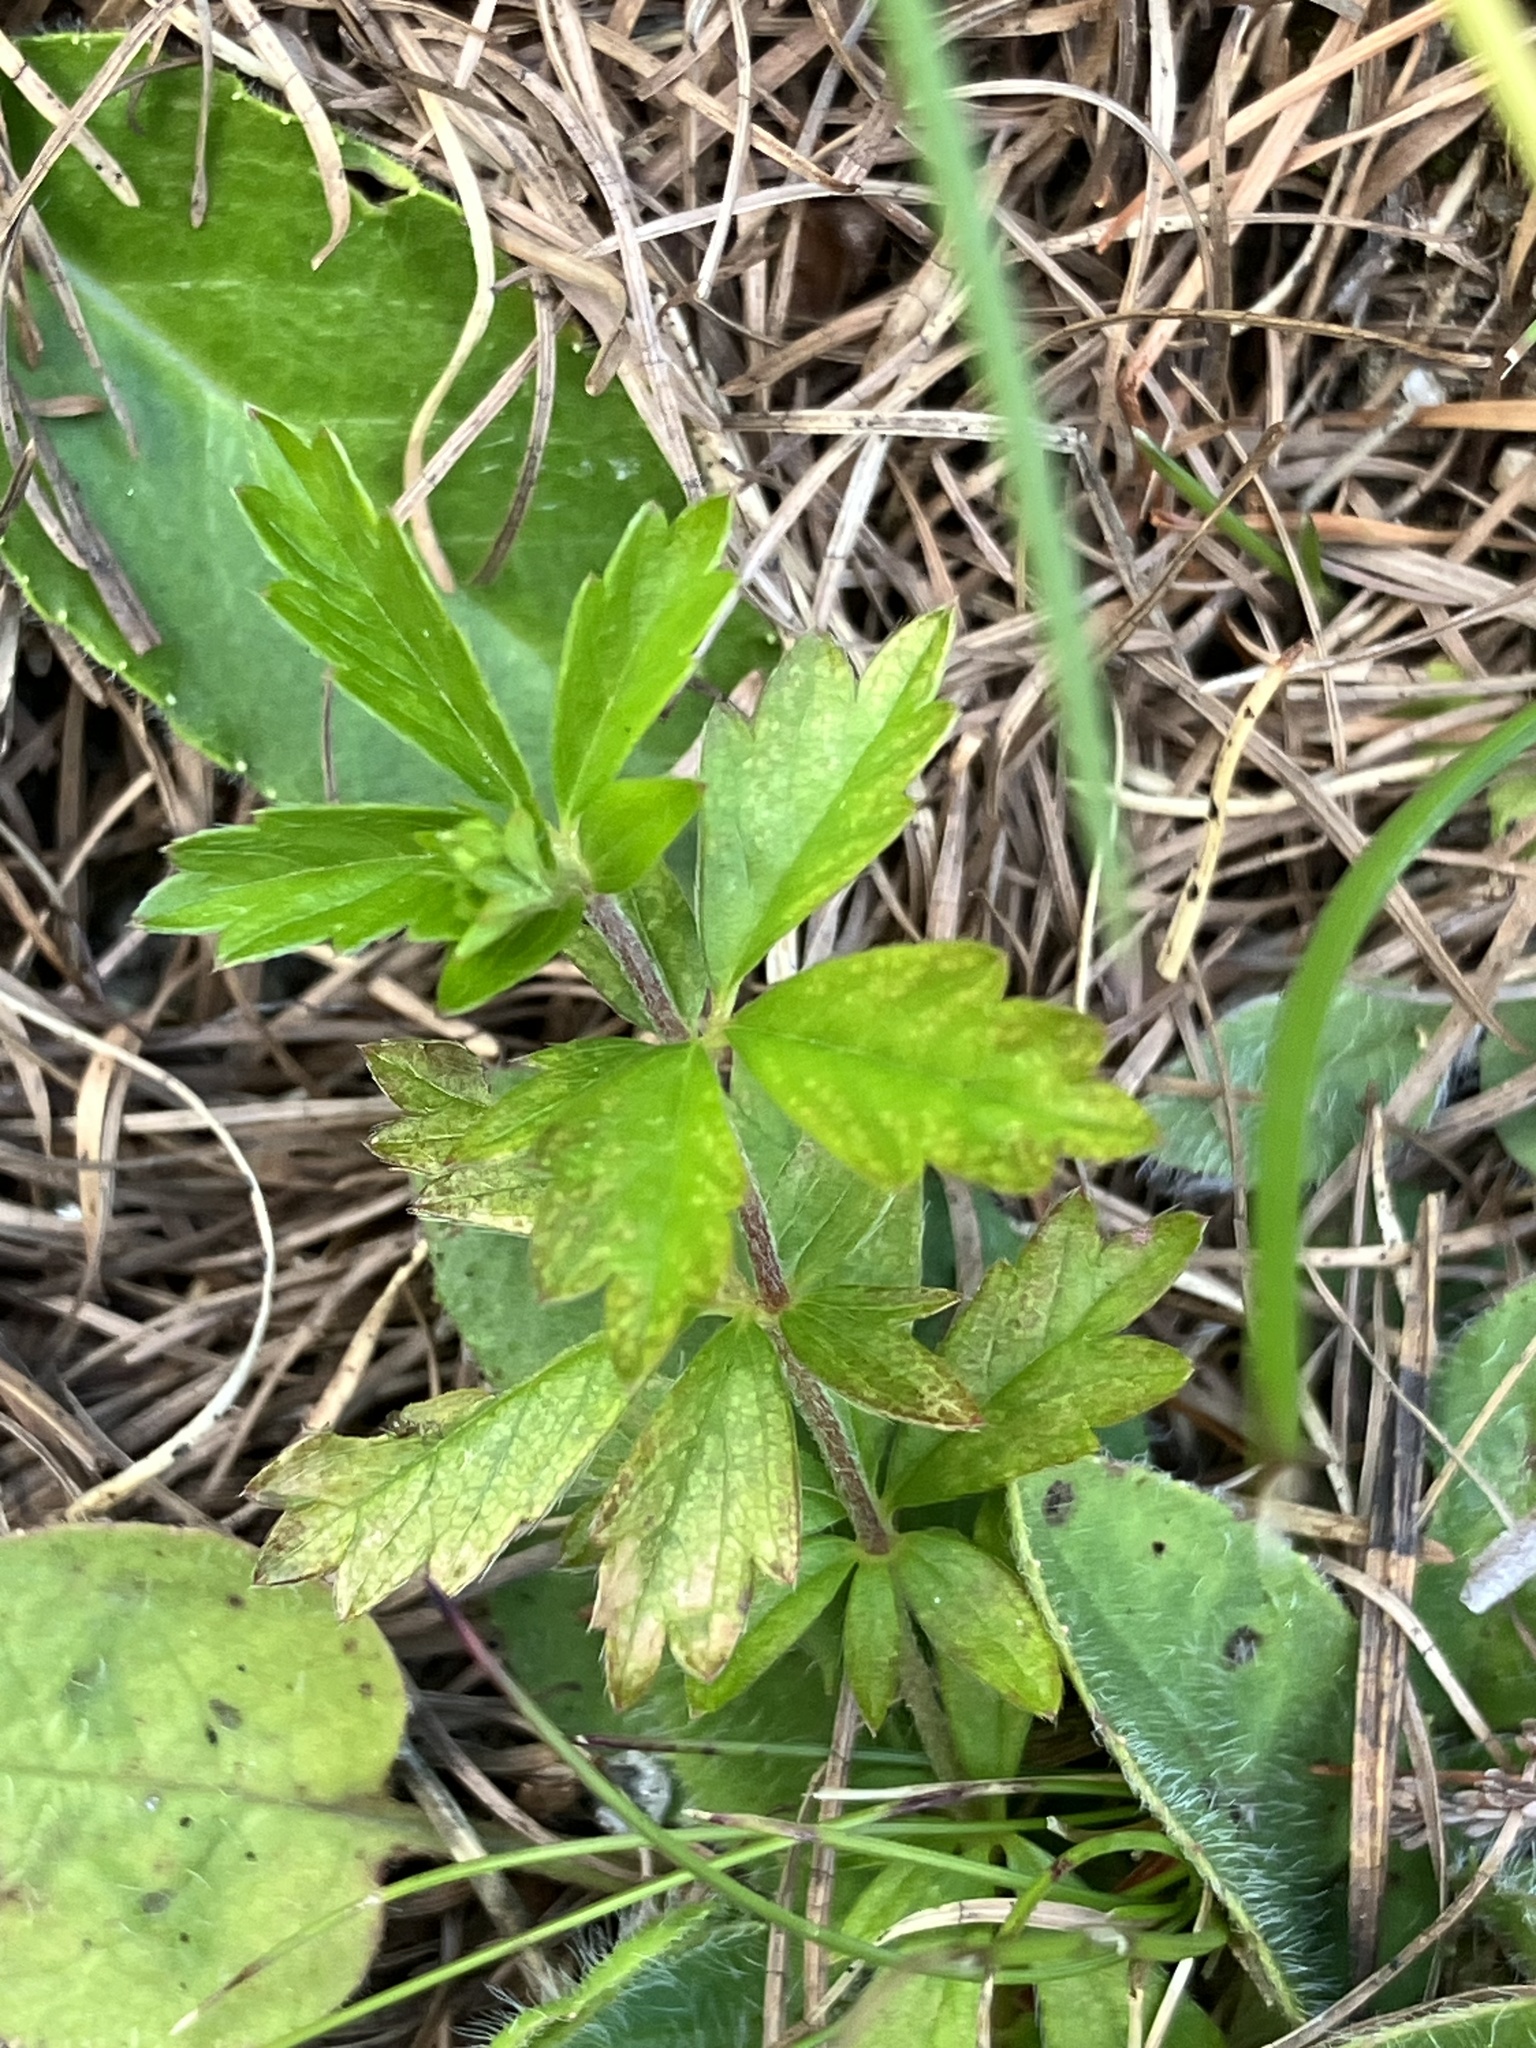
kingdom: Plantae
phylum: Tracheophyta
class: Magnoliopsida
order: Rosales
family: Rosaceae
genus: Potentilla
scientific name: Potentilla erecta
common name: Tormentil
